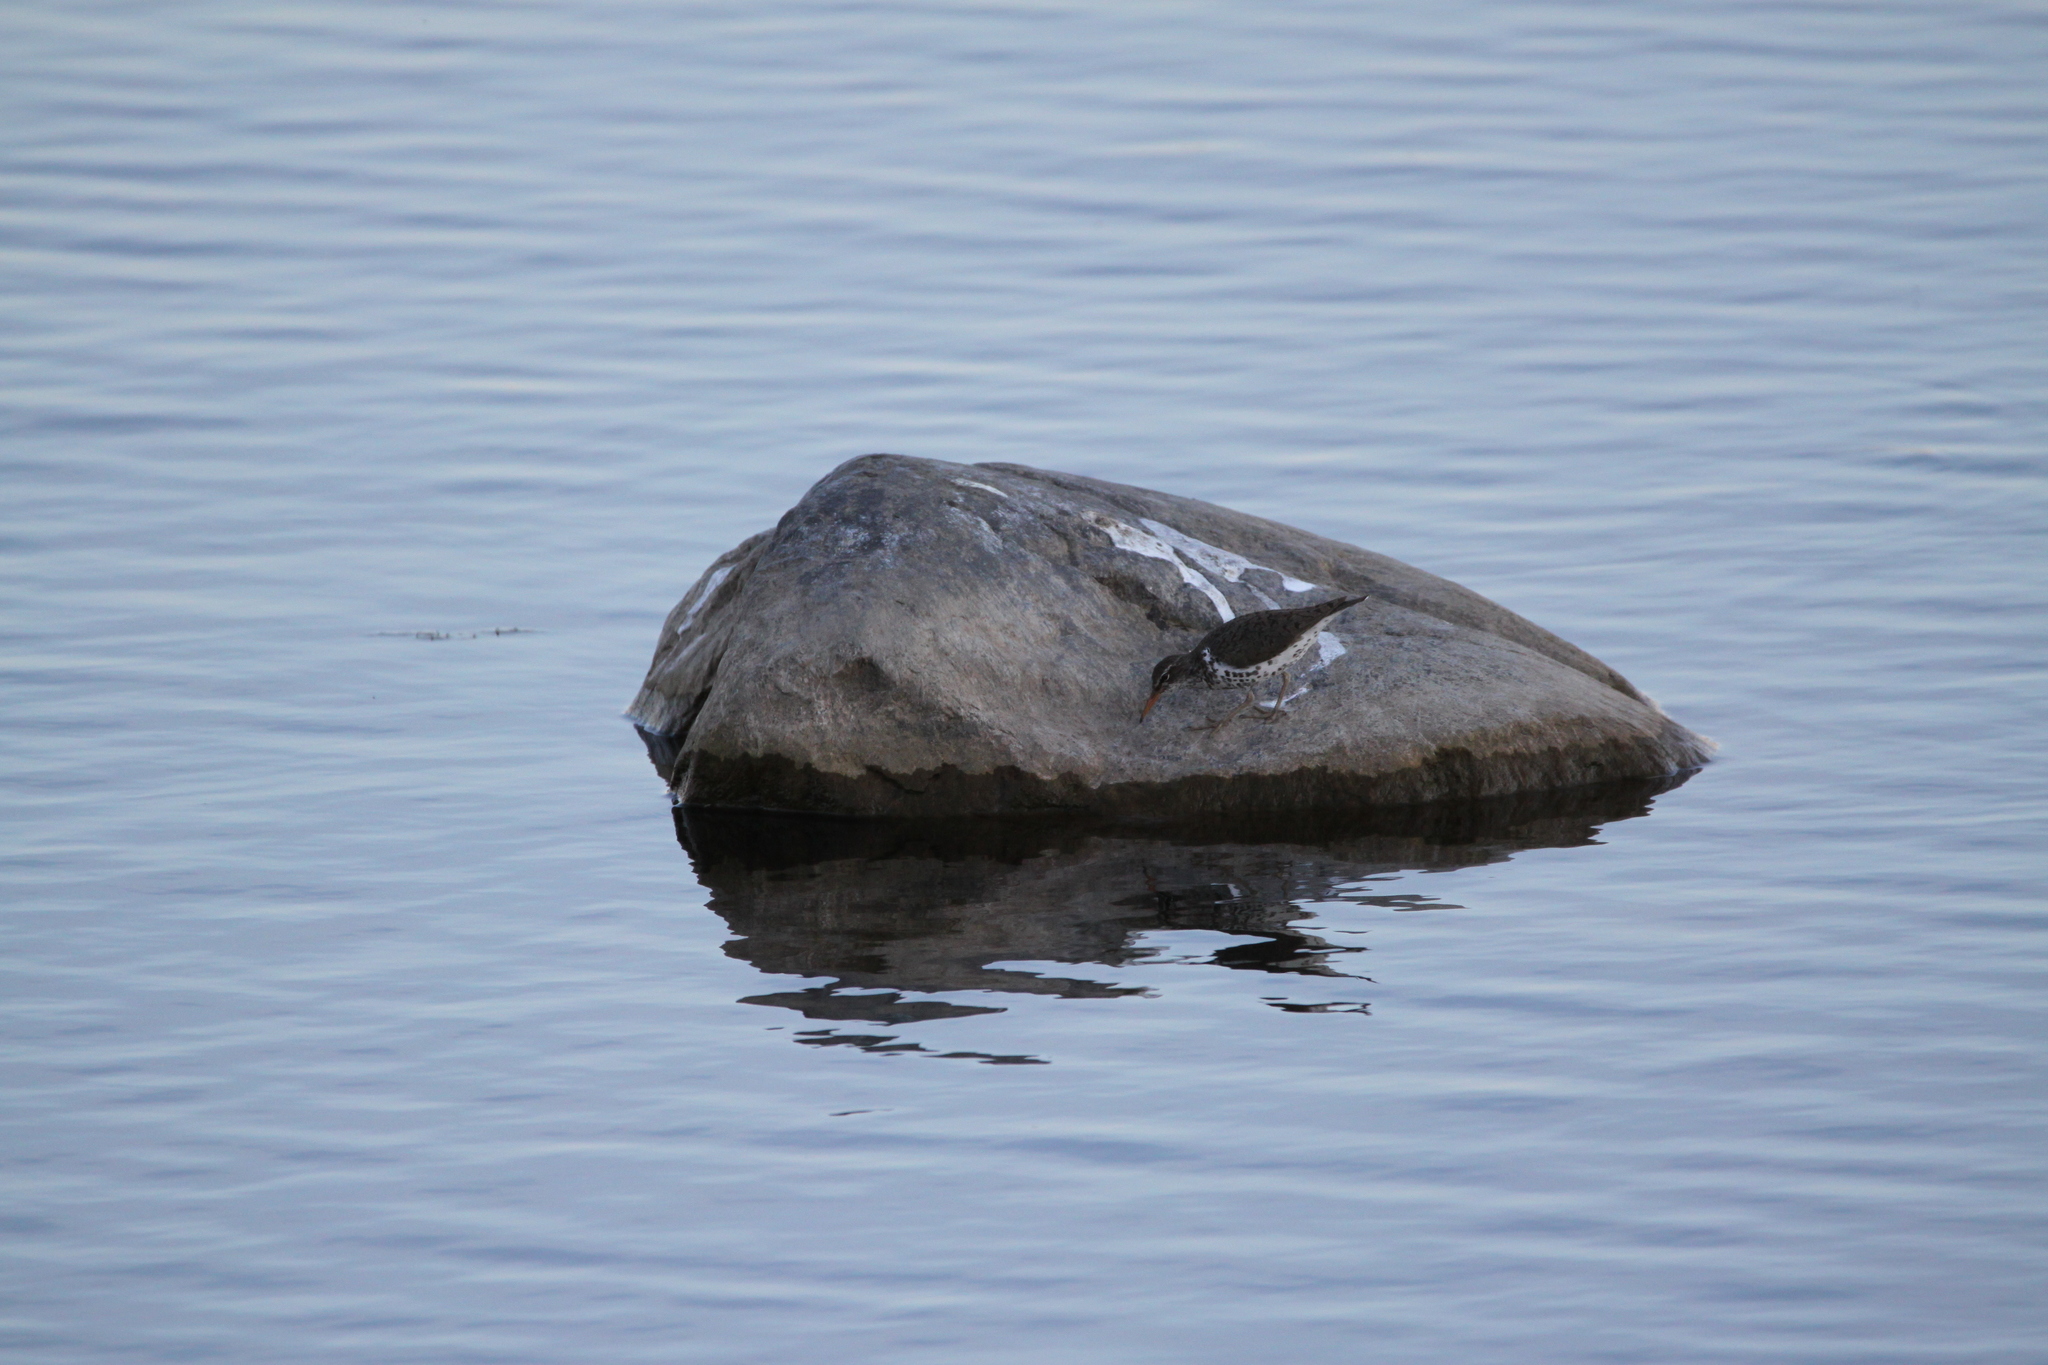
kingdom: Animalia
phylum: Chordata
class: Aves
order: Charadriiformes
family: Scolopacidae
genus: Actitis
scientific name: Actitis macularius
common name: Spotted sandpiper
